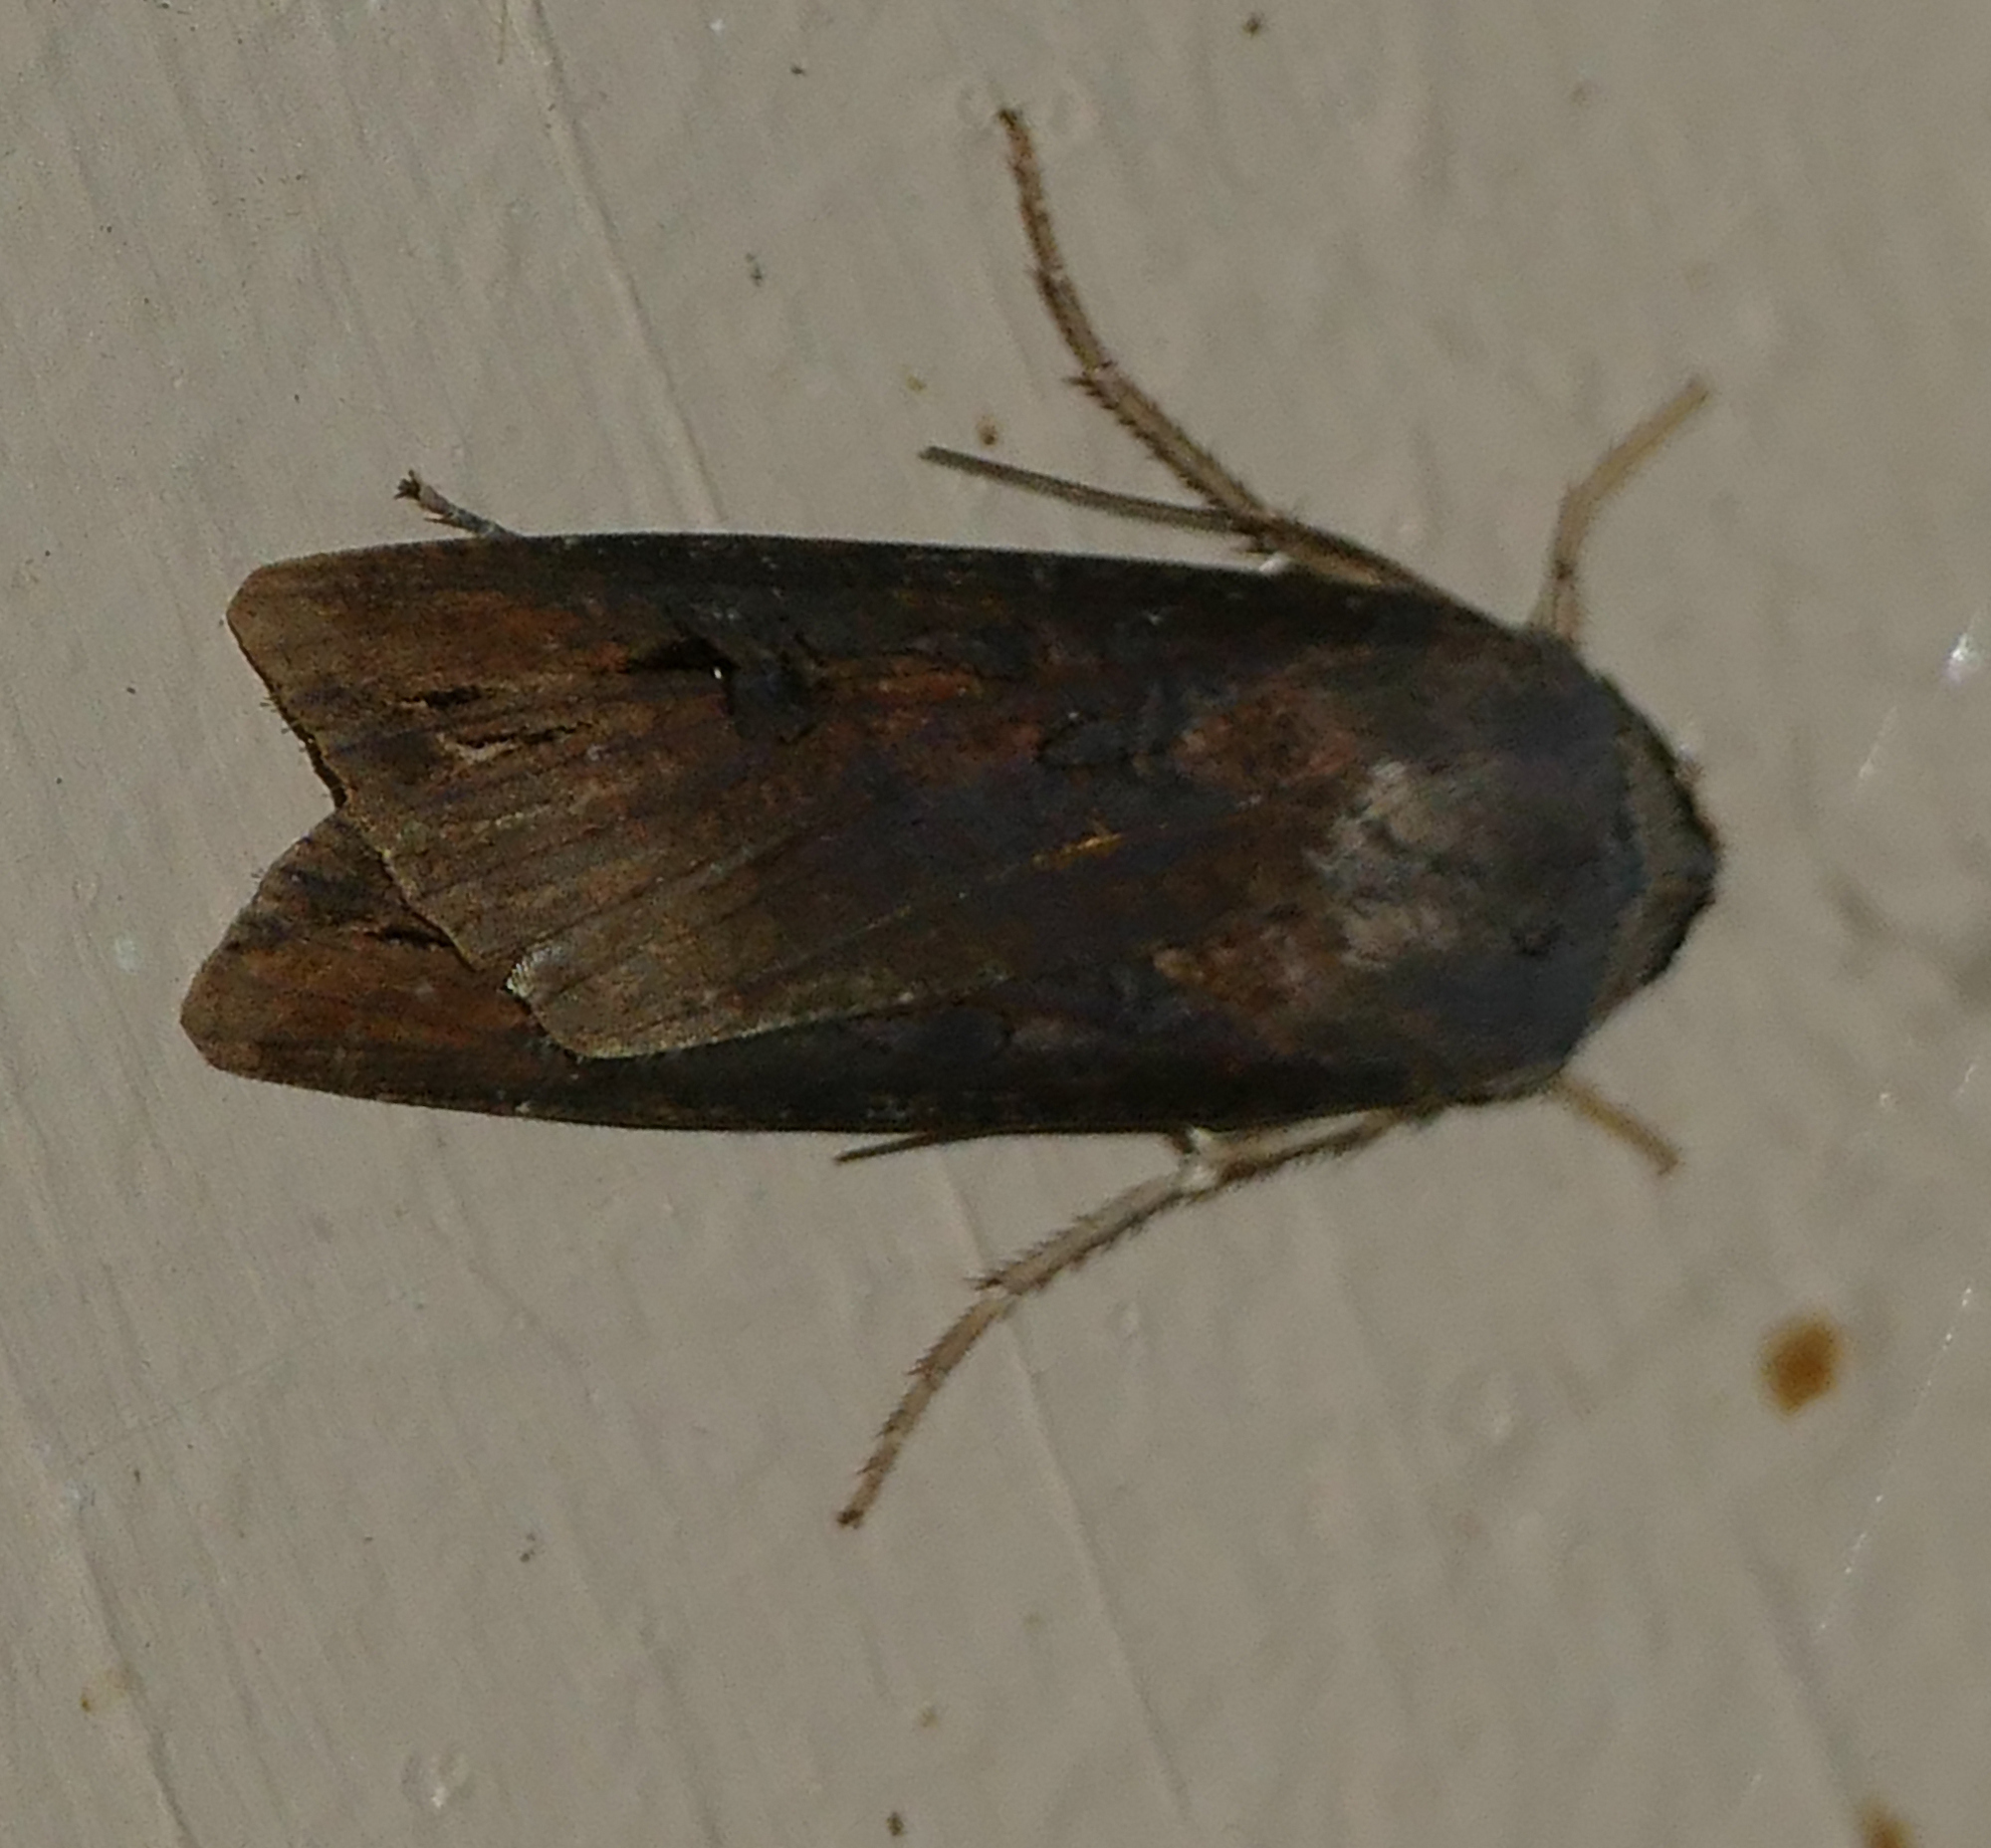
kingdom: Animalia
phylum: Arthropoda
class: Insecta
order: Lepidoptera
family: Noctuidae
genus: Agrotis
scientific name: Agrotis ipsilon
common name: Dark sword-grass
